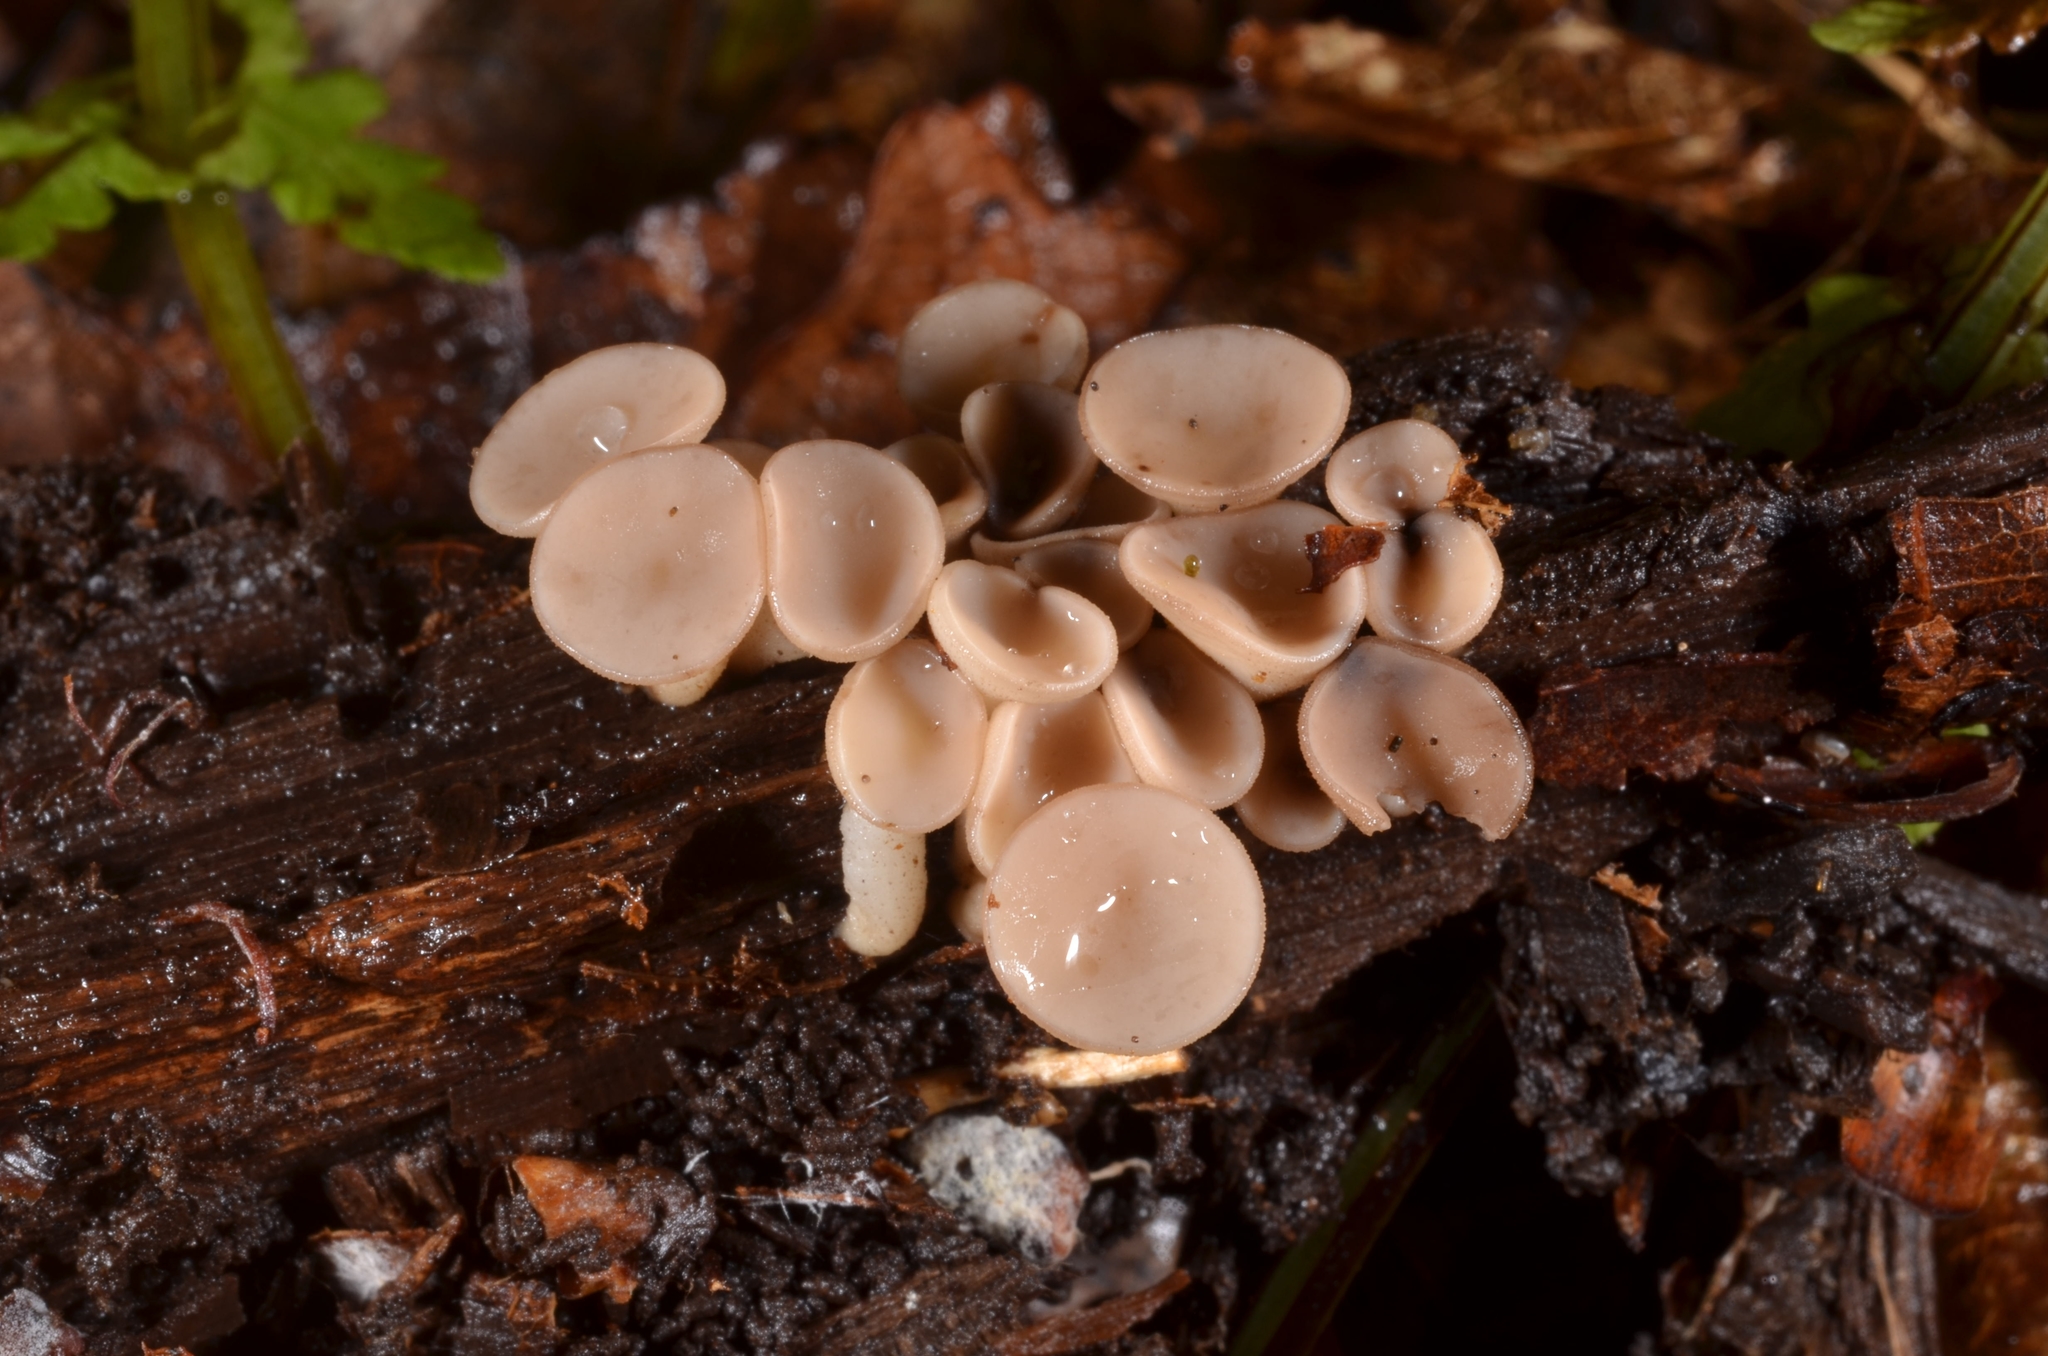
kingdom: Fungi
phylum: Ascomycota
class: Leotiomycetes
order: Helotiales
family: Helotiaceae
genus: Tatraea
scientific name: Tatraea macrospora
